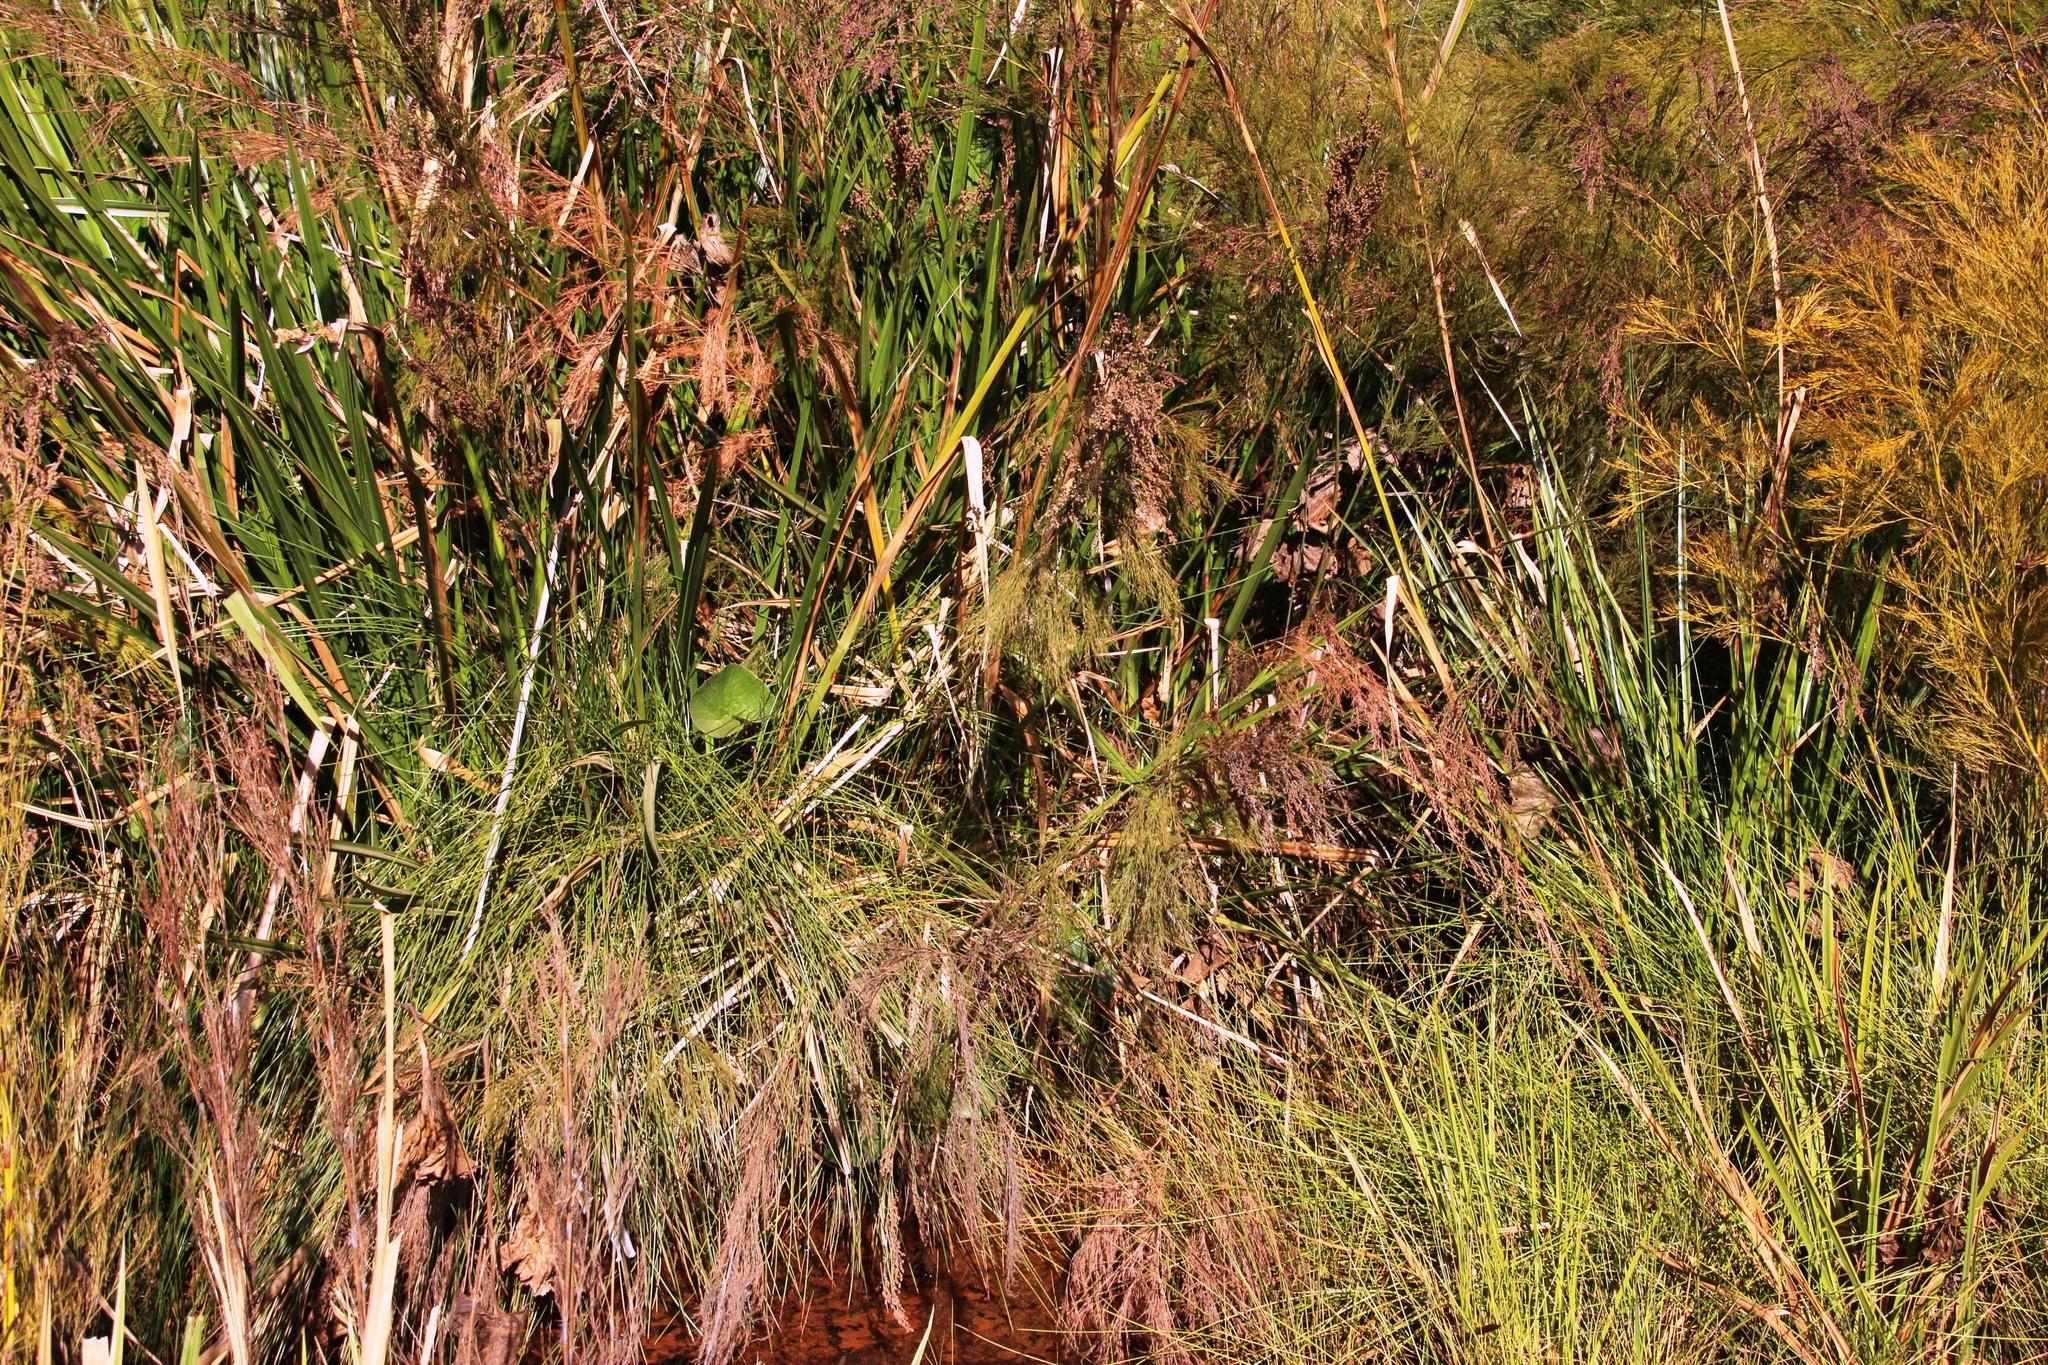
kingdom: Plantae
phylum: Tracheophyta
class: Liliopsida
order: Poales
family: Thurniaceae
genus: Prionium
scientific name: Prionium serratum
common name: Palmiet
